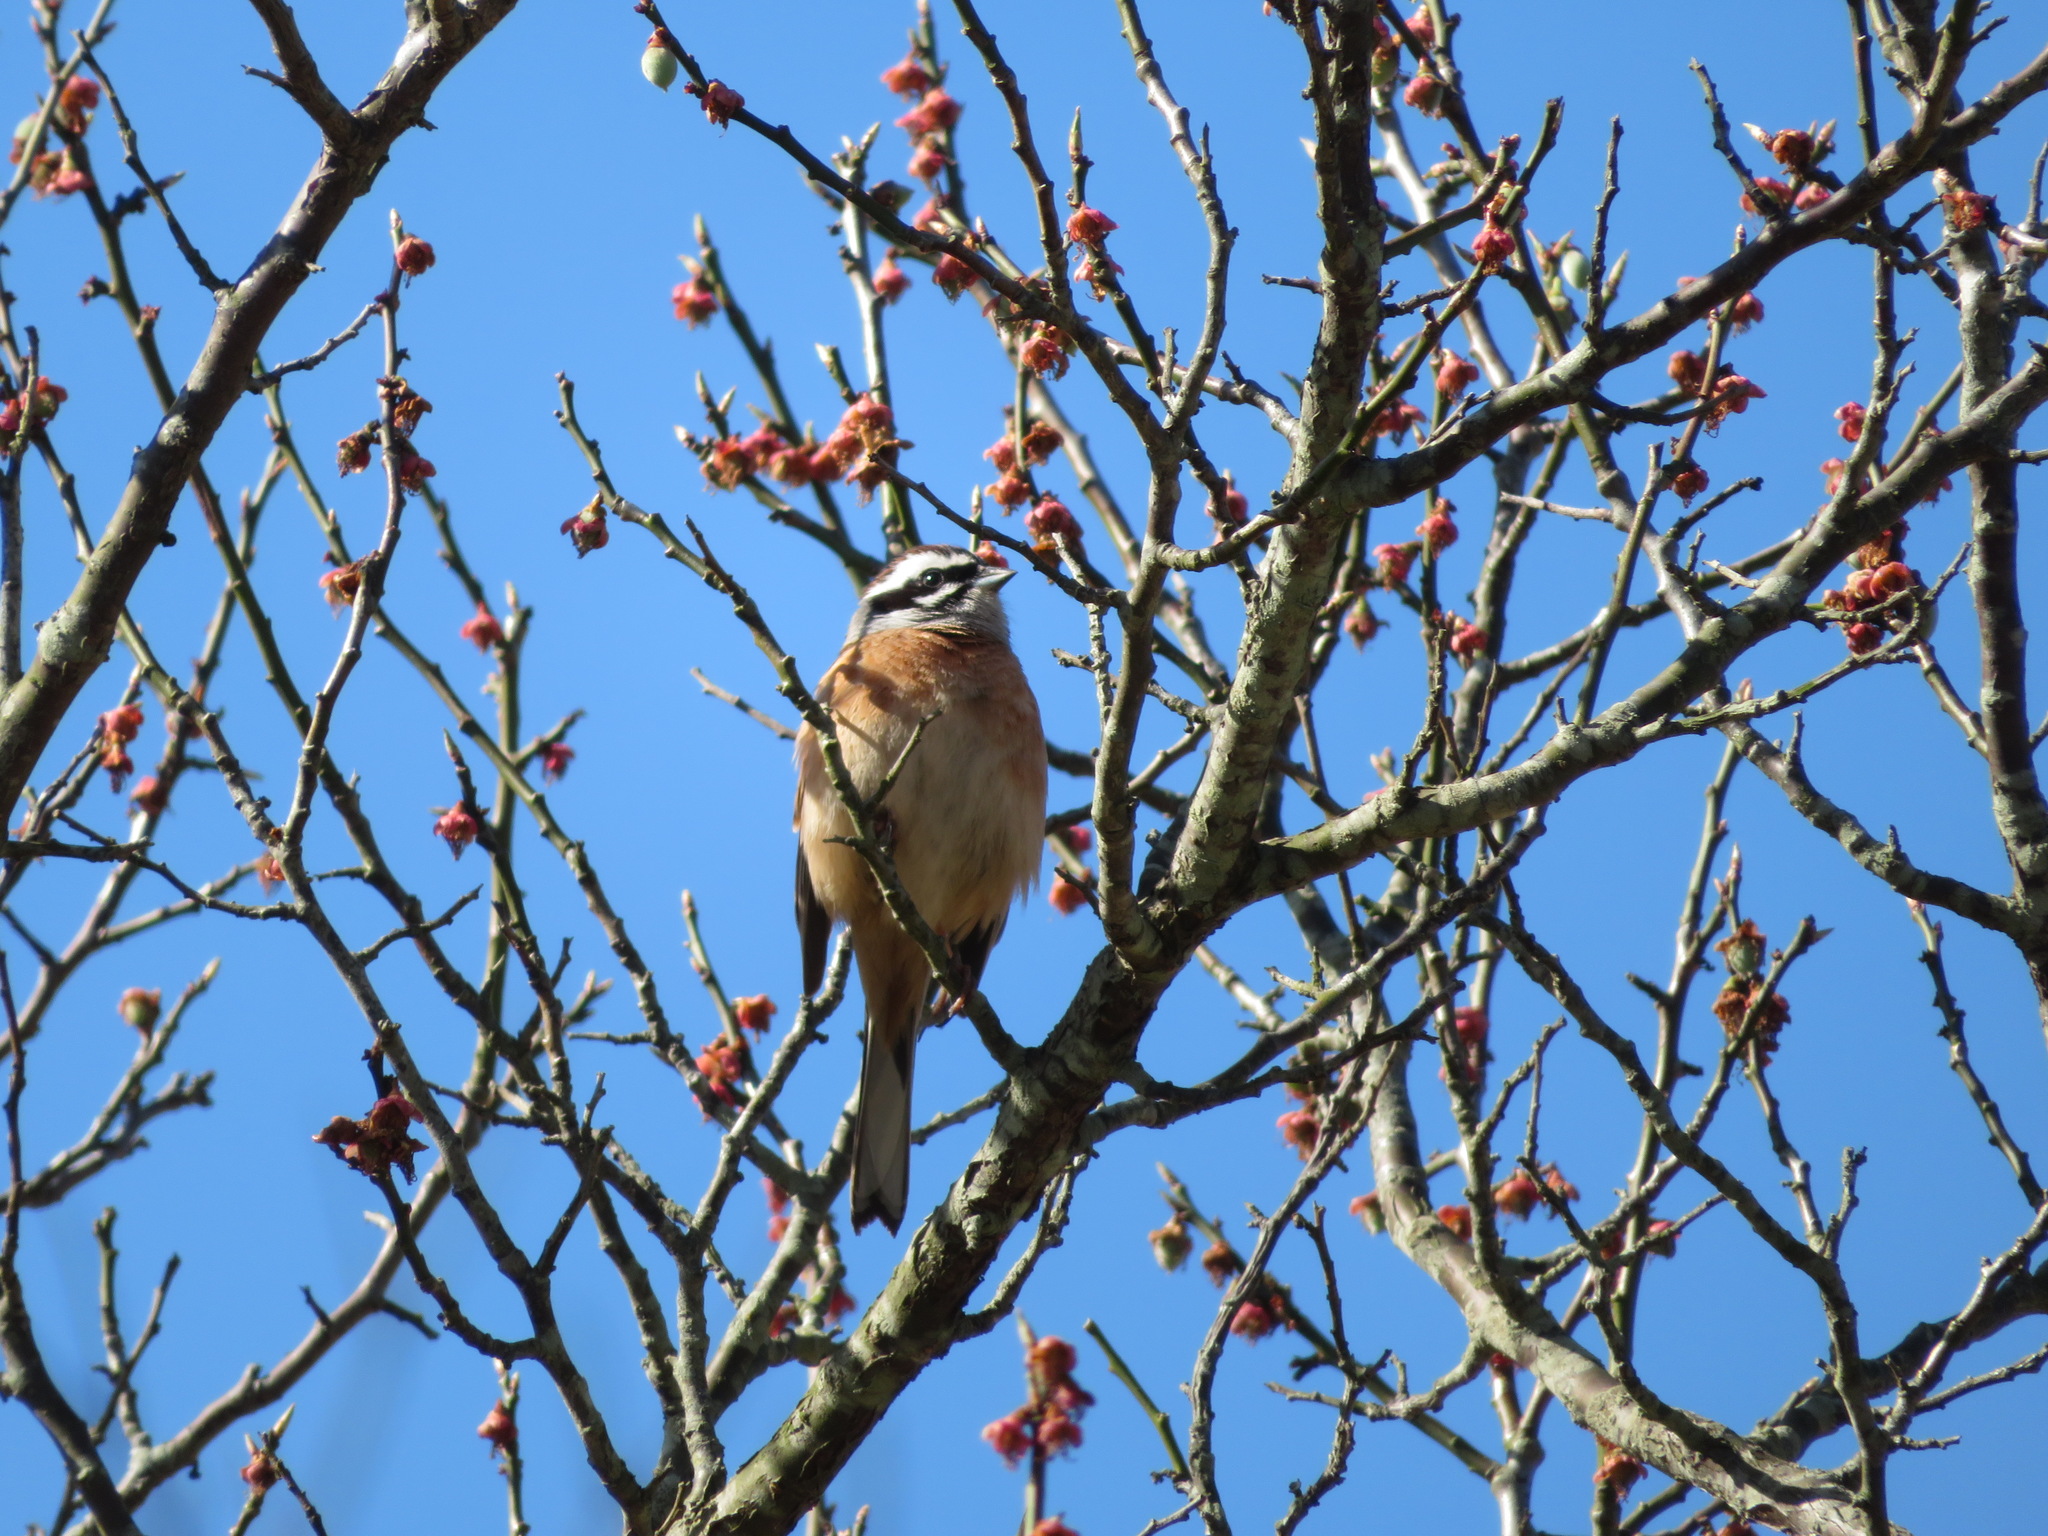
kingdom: Animalia
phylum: Chordata
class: Aves
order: Passeriformes
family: Emberizidae
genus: Emberiza
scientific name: Emberiza cioides
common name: Meadow bunting
